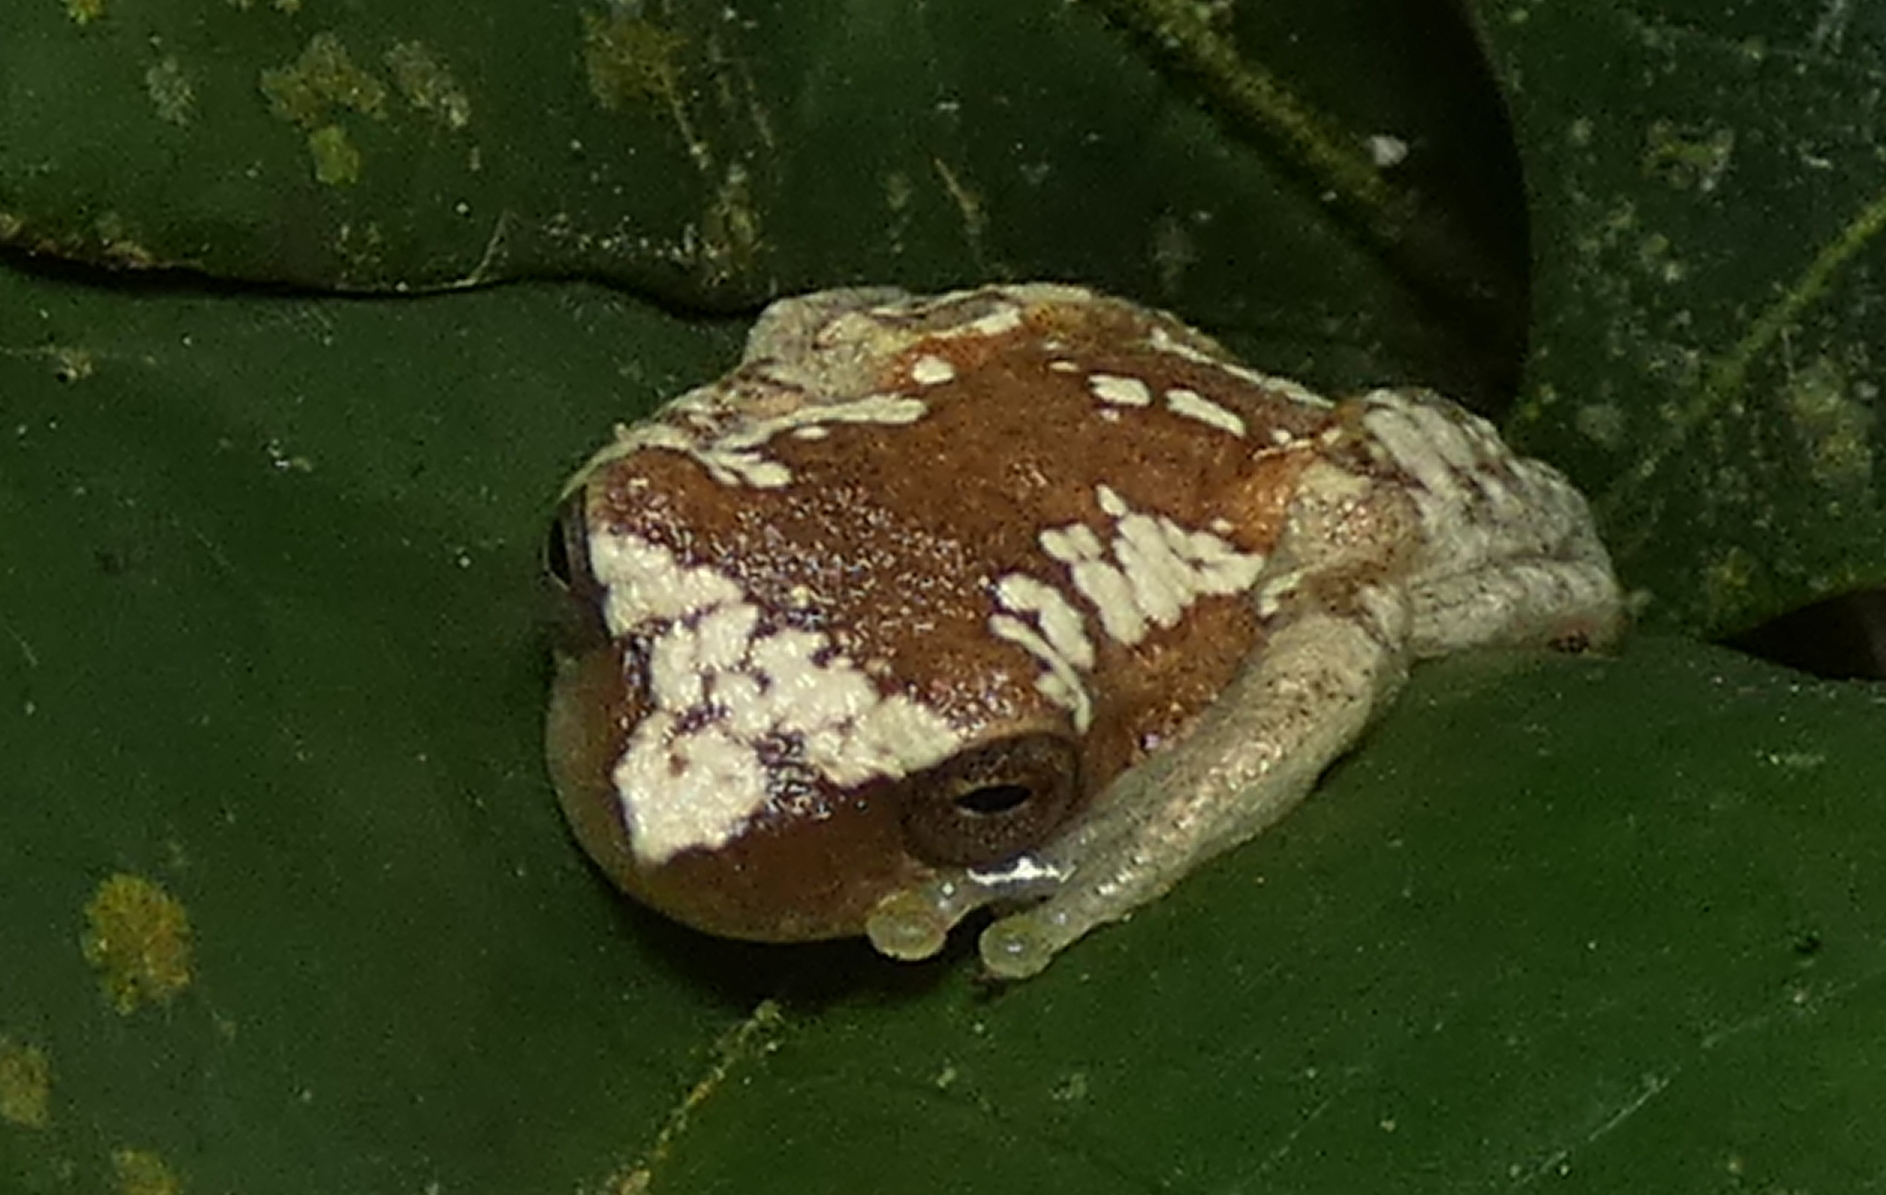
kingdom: Animalia
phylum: Chordata
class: Amphibia
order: Anura
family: Hylidae
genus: Dendropsophus
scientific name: Dendropsophus elegans
